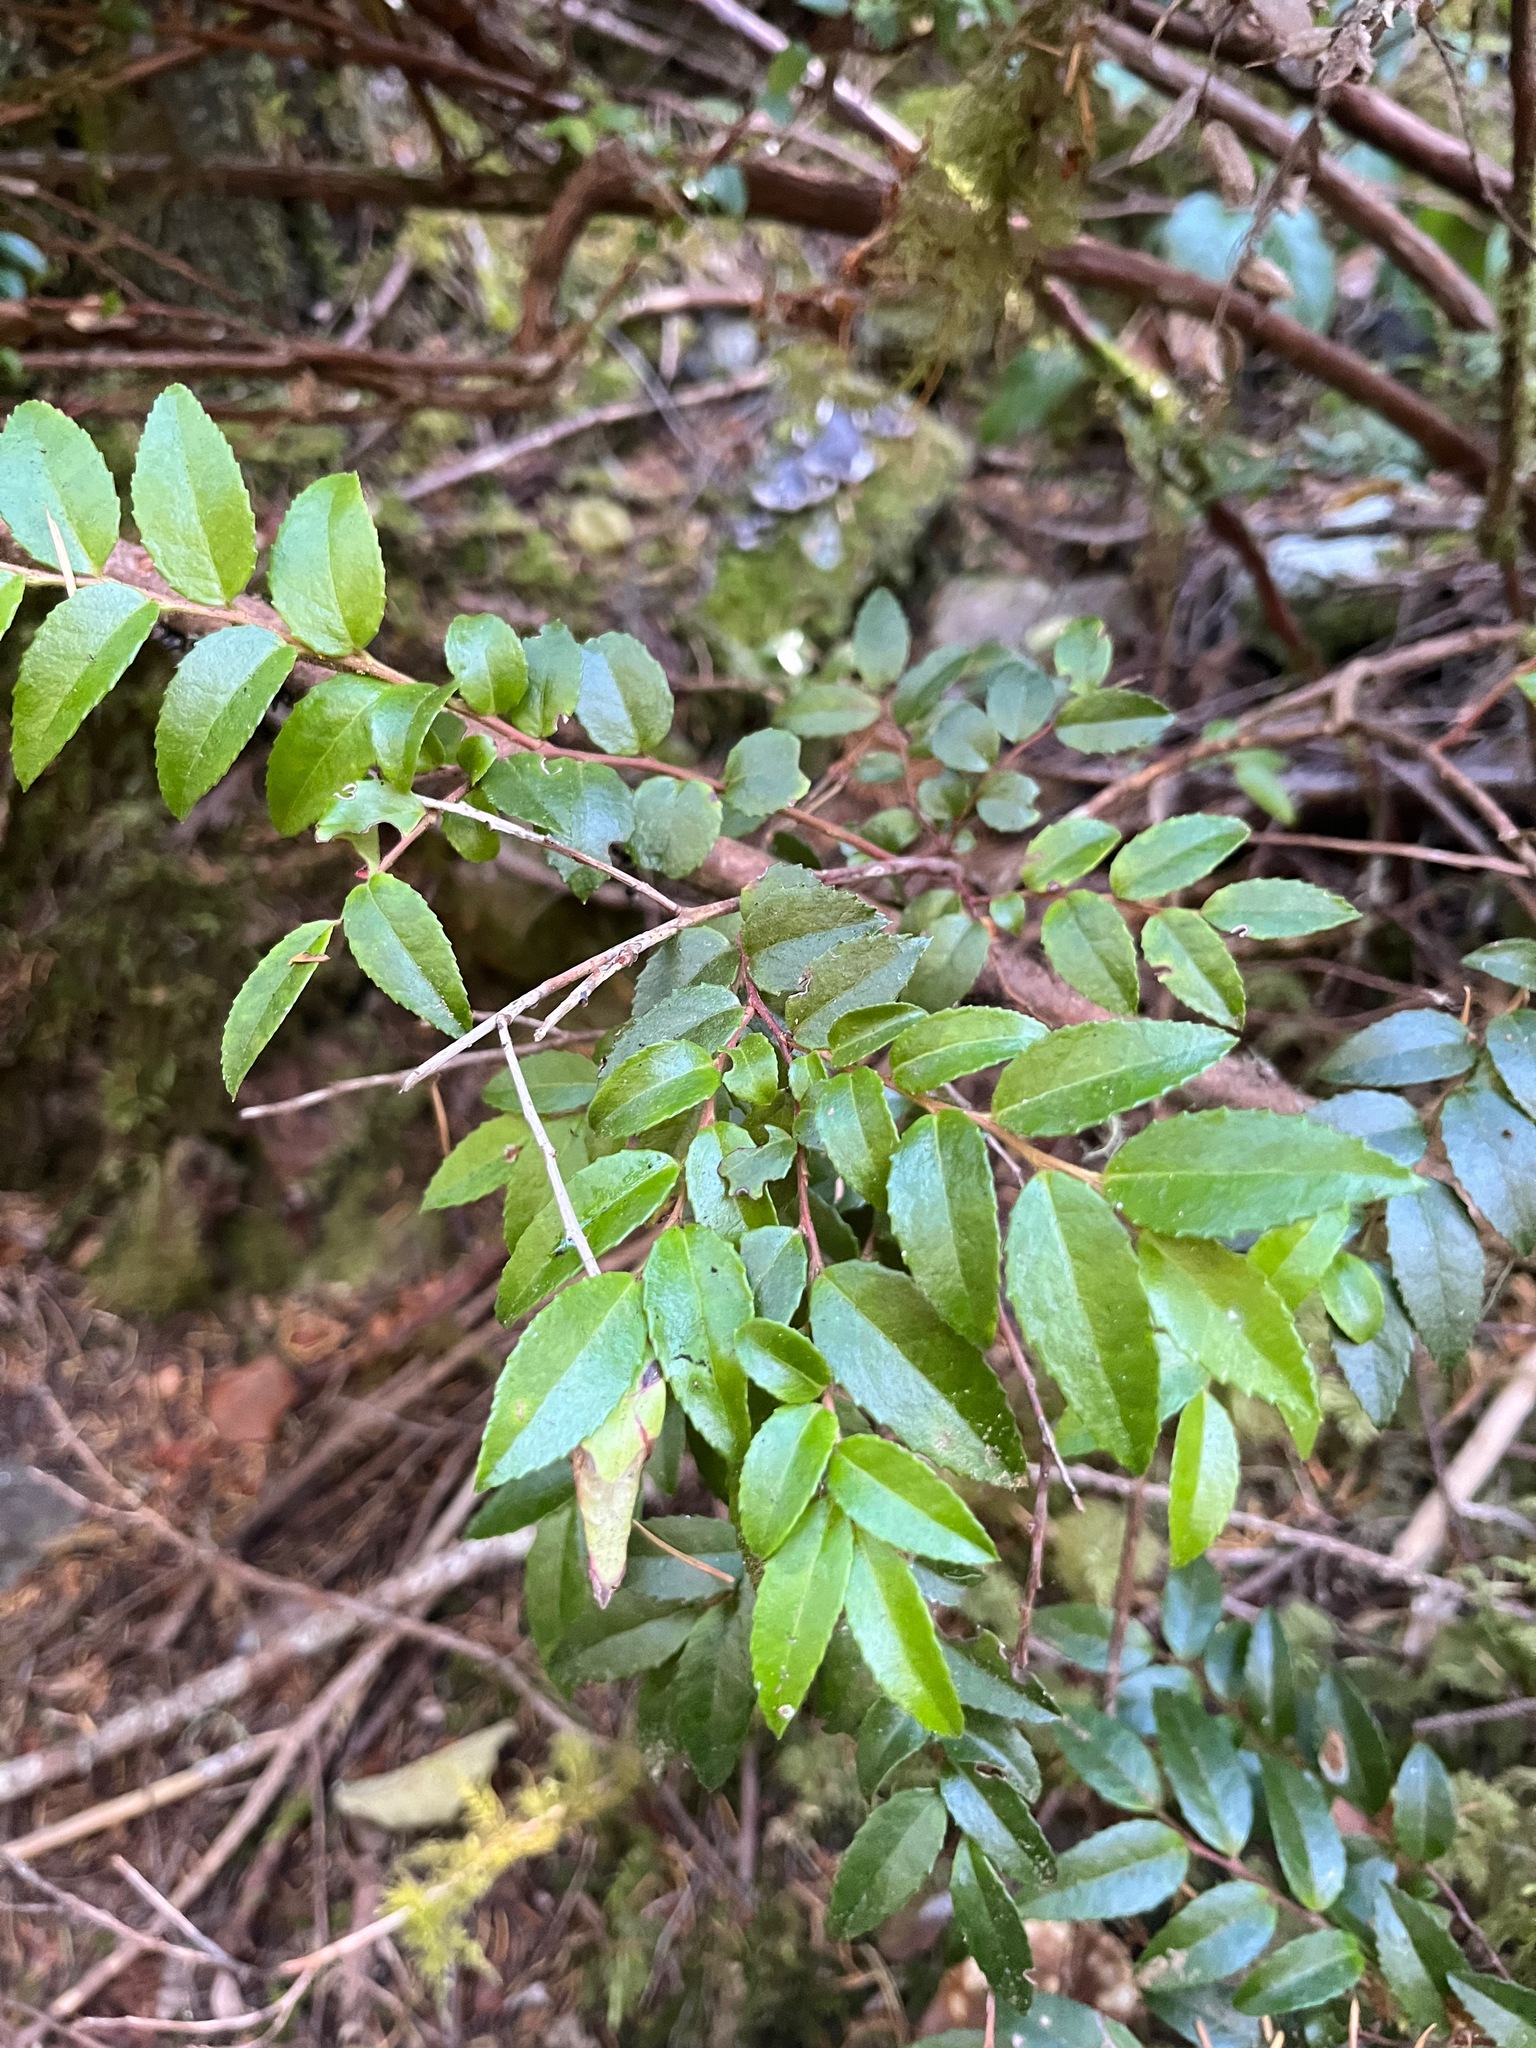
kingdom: Plantae
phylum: Tracheophyta
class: Magnoliopsida
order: Ericales
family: Ericaceae
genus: Vaccinium
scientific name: Vaccinium ovatum
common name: California-huckleberry
